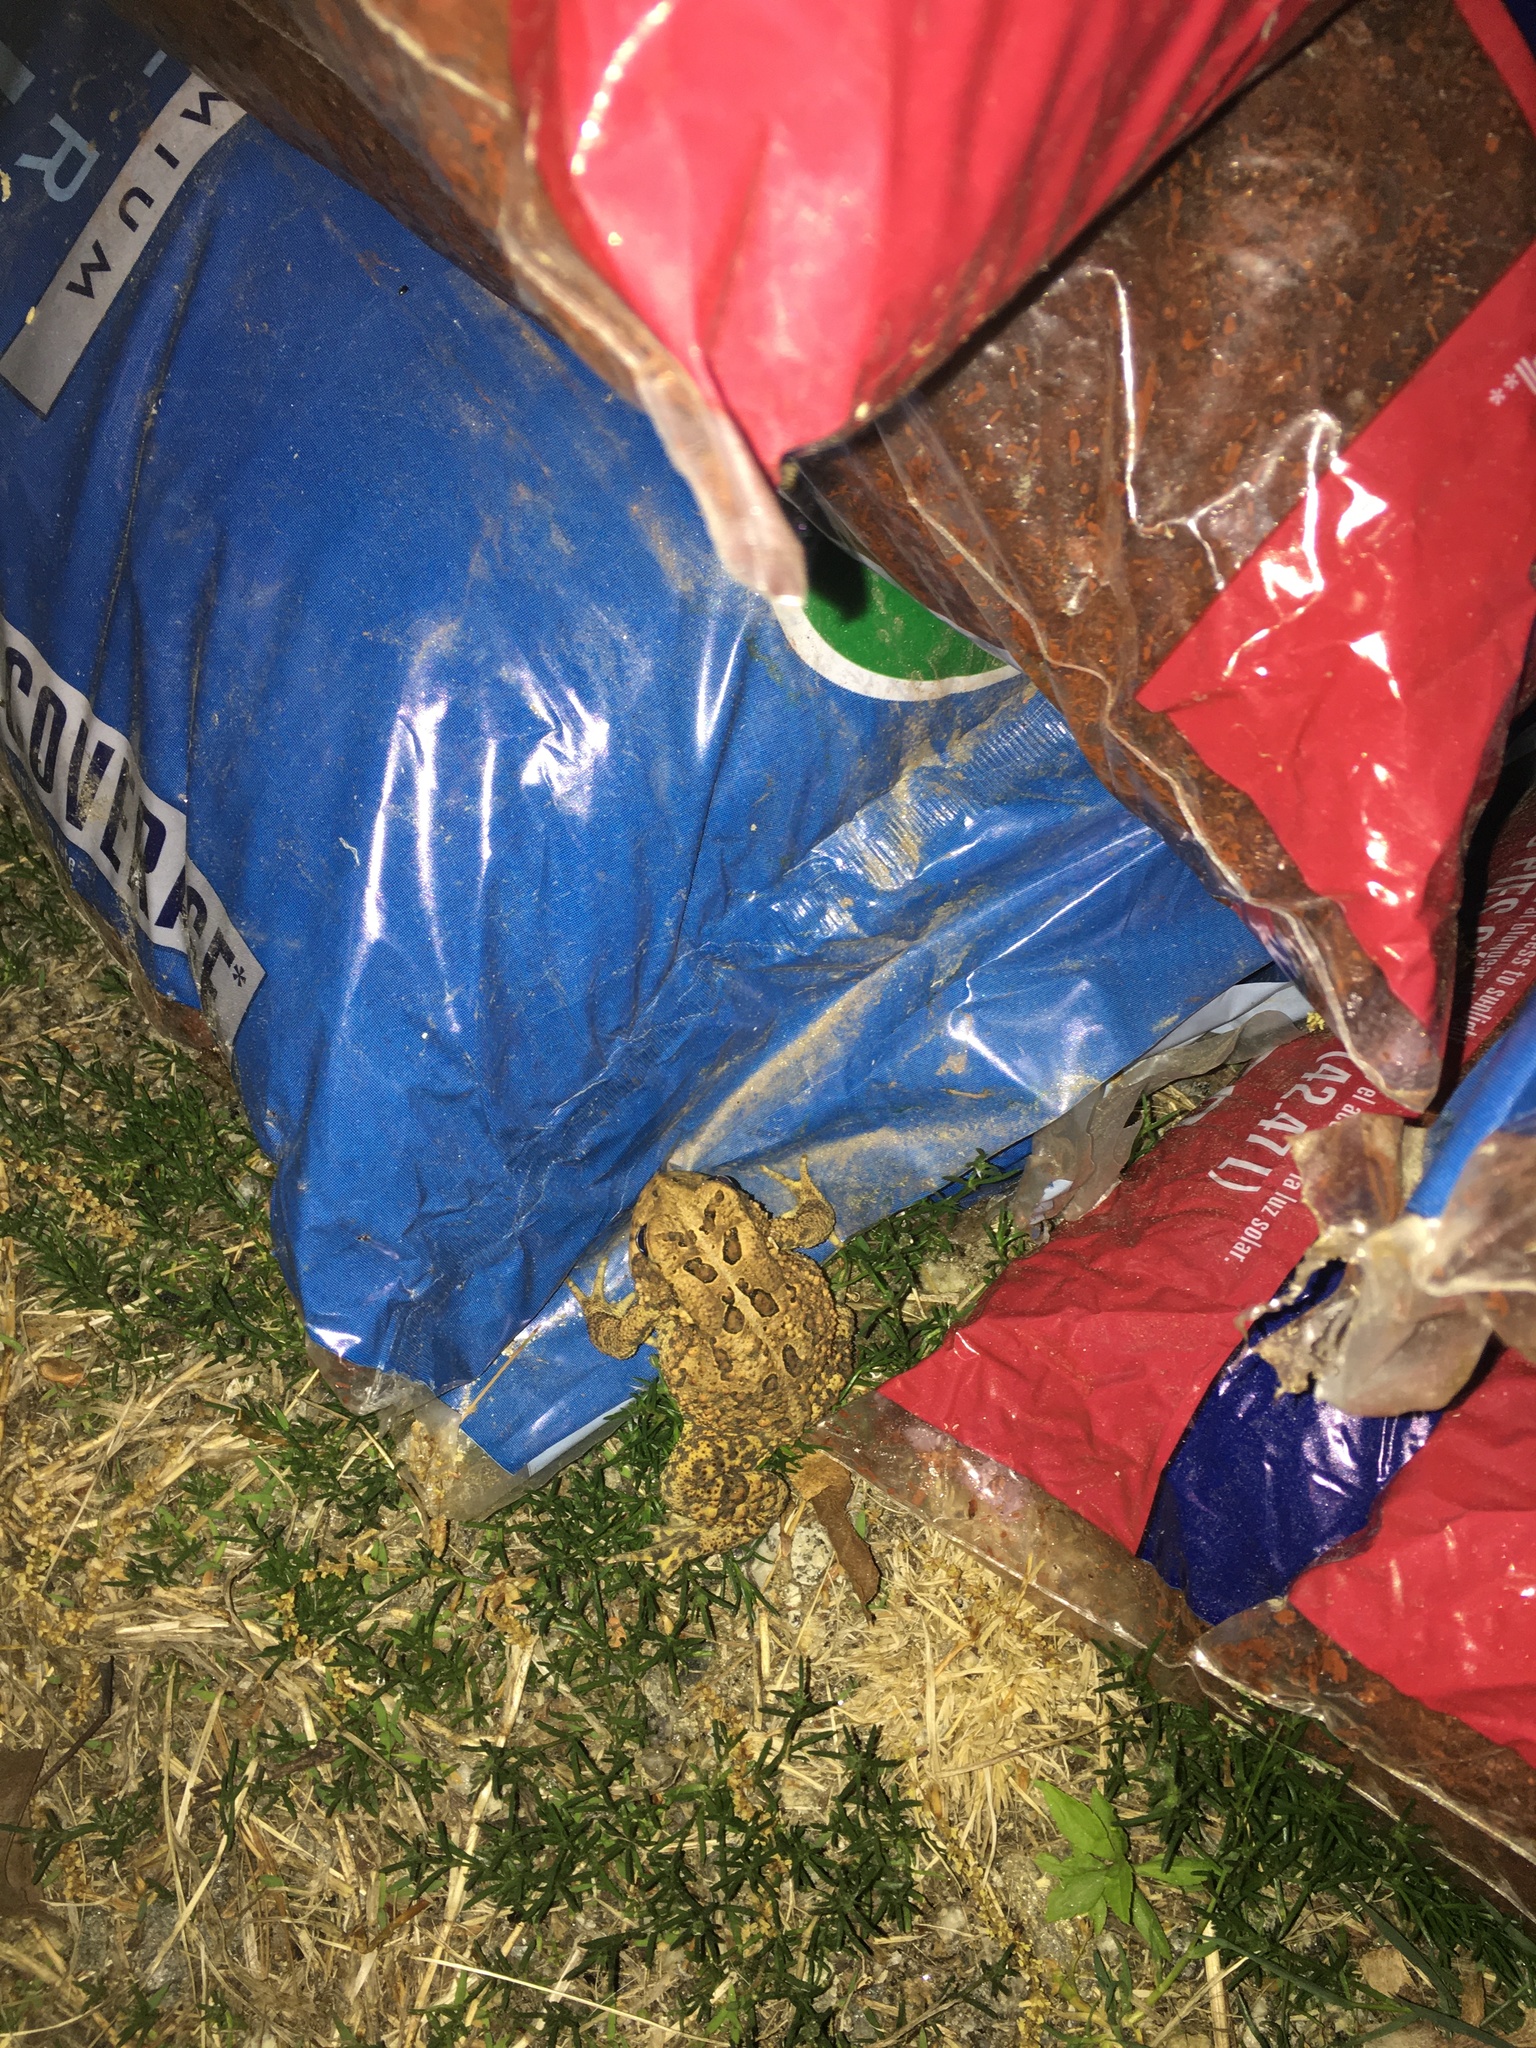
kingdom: Animalia
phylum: Chordata
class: Amphibia
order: Anura
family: Bufonidae
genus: Anaxyrus
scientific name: Anaxyrus americanus
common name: American toad
